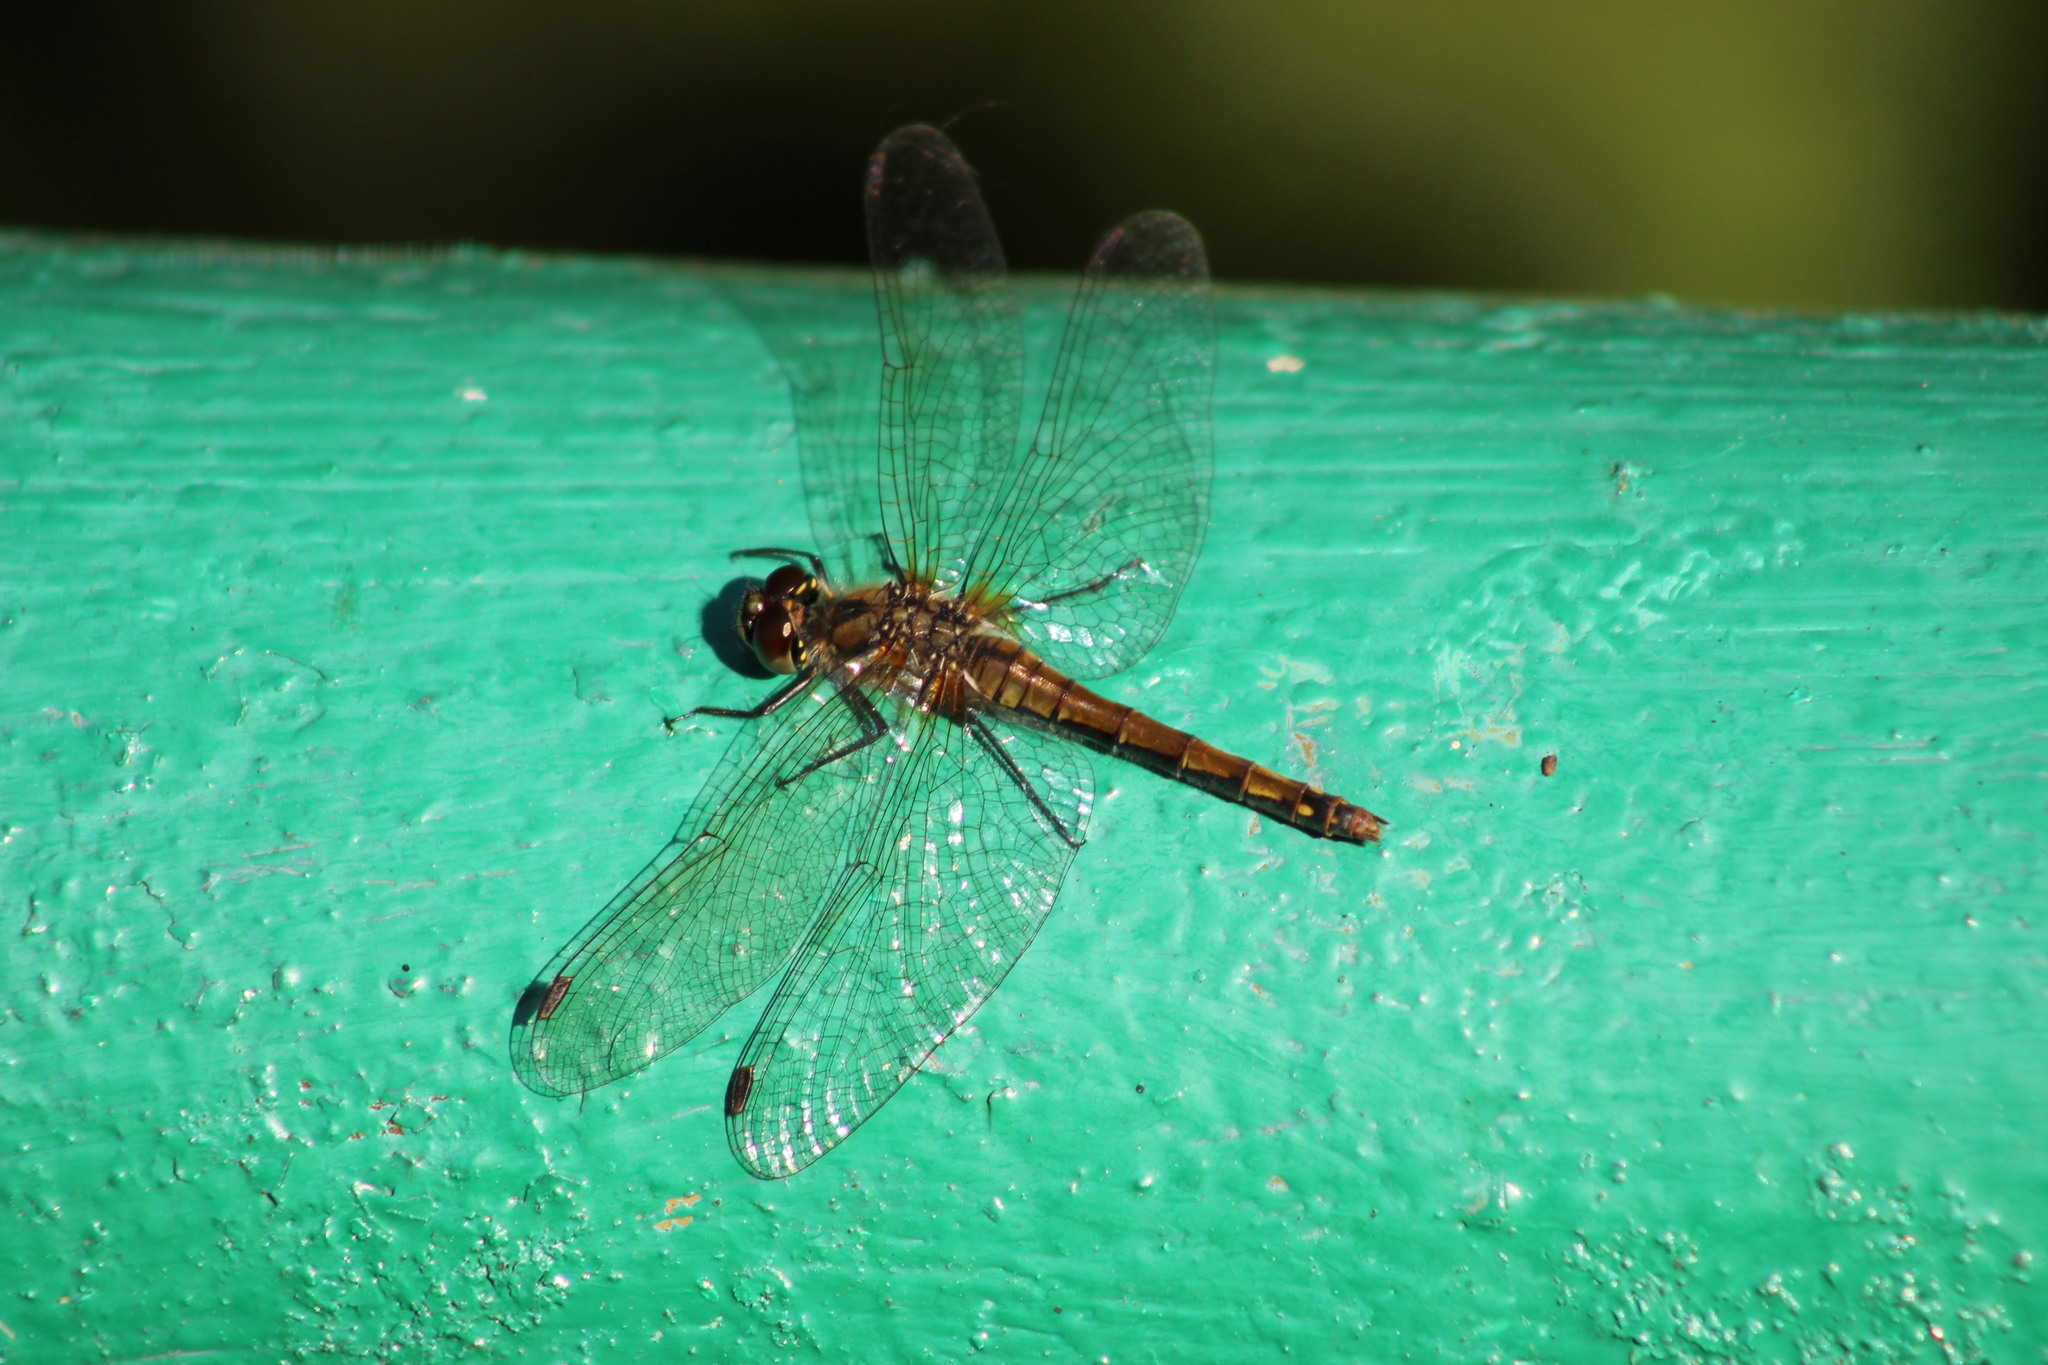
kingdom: Animalia
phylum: Arthropoda
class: Insecta
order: Odonata
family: Libellulidae
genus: Sympetrum
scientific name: Sympetrum danae
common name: Black darter
